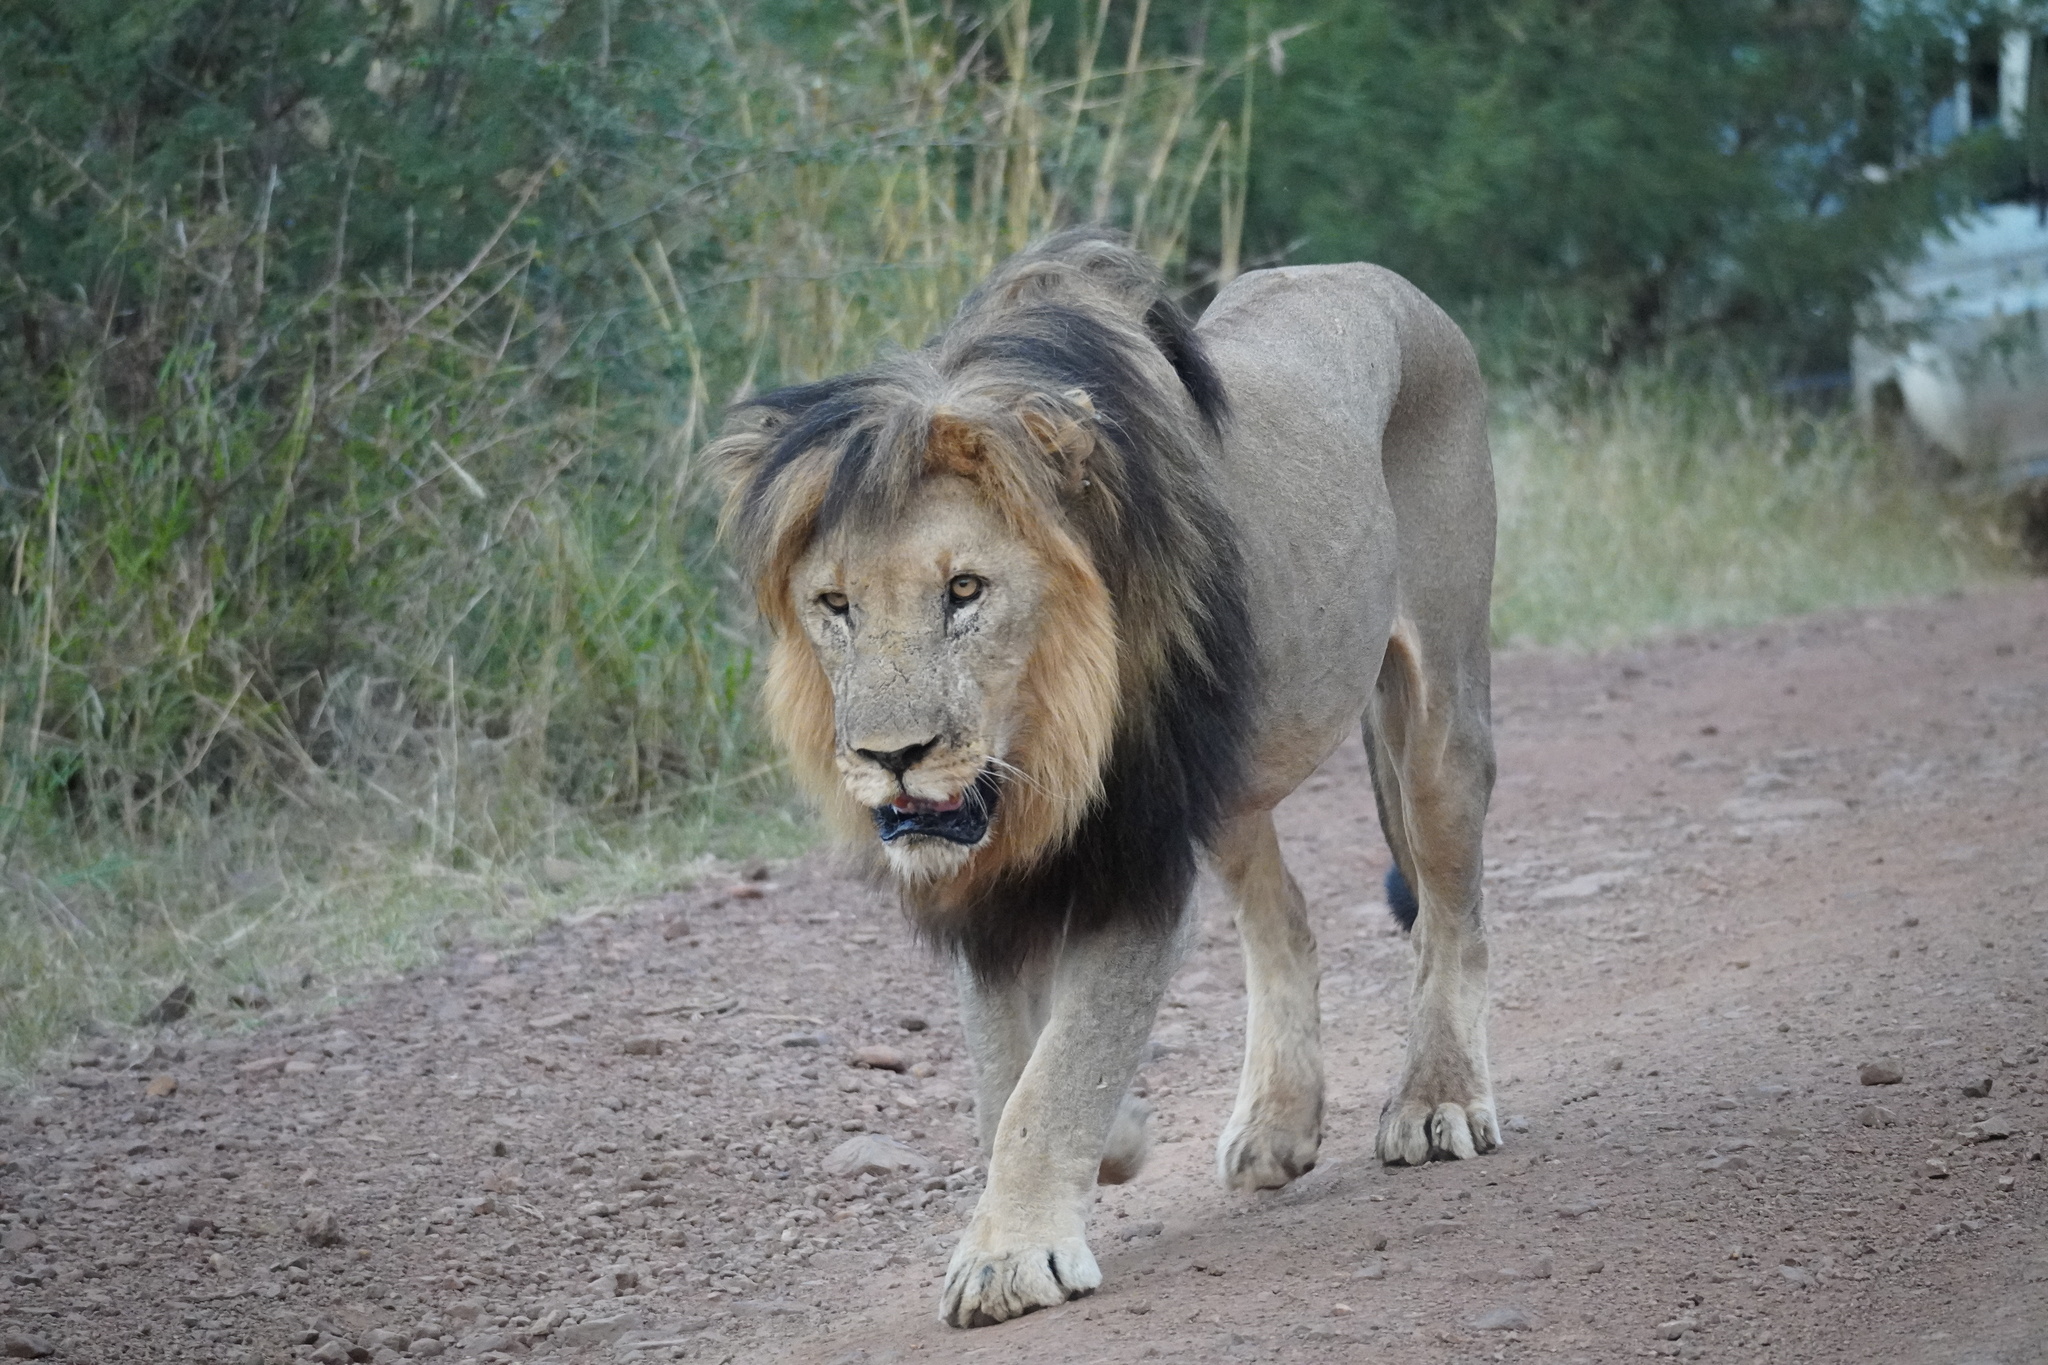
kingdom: Animalia
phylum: Chordata
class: Mammalia
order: Carnivora
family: Felidae
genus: Panthera
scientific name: Panthera leo
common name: Lion
